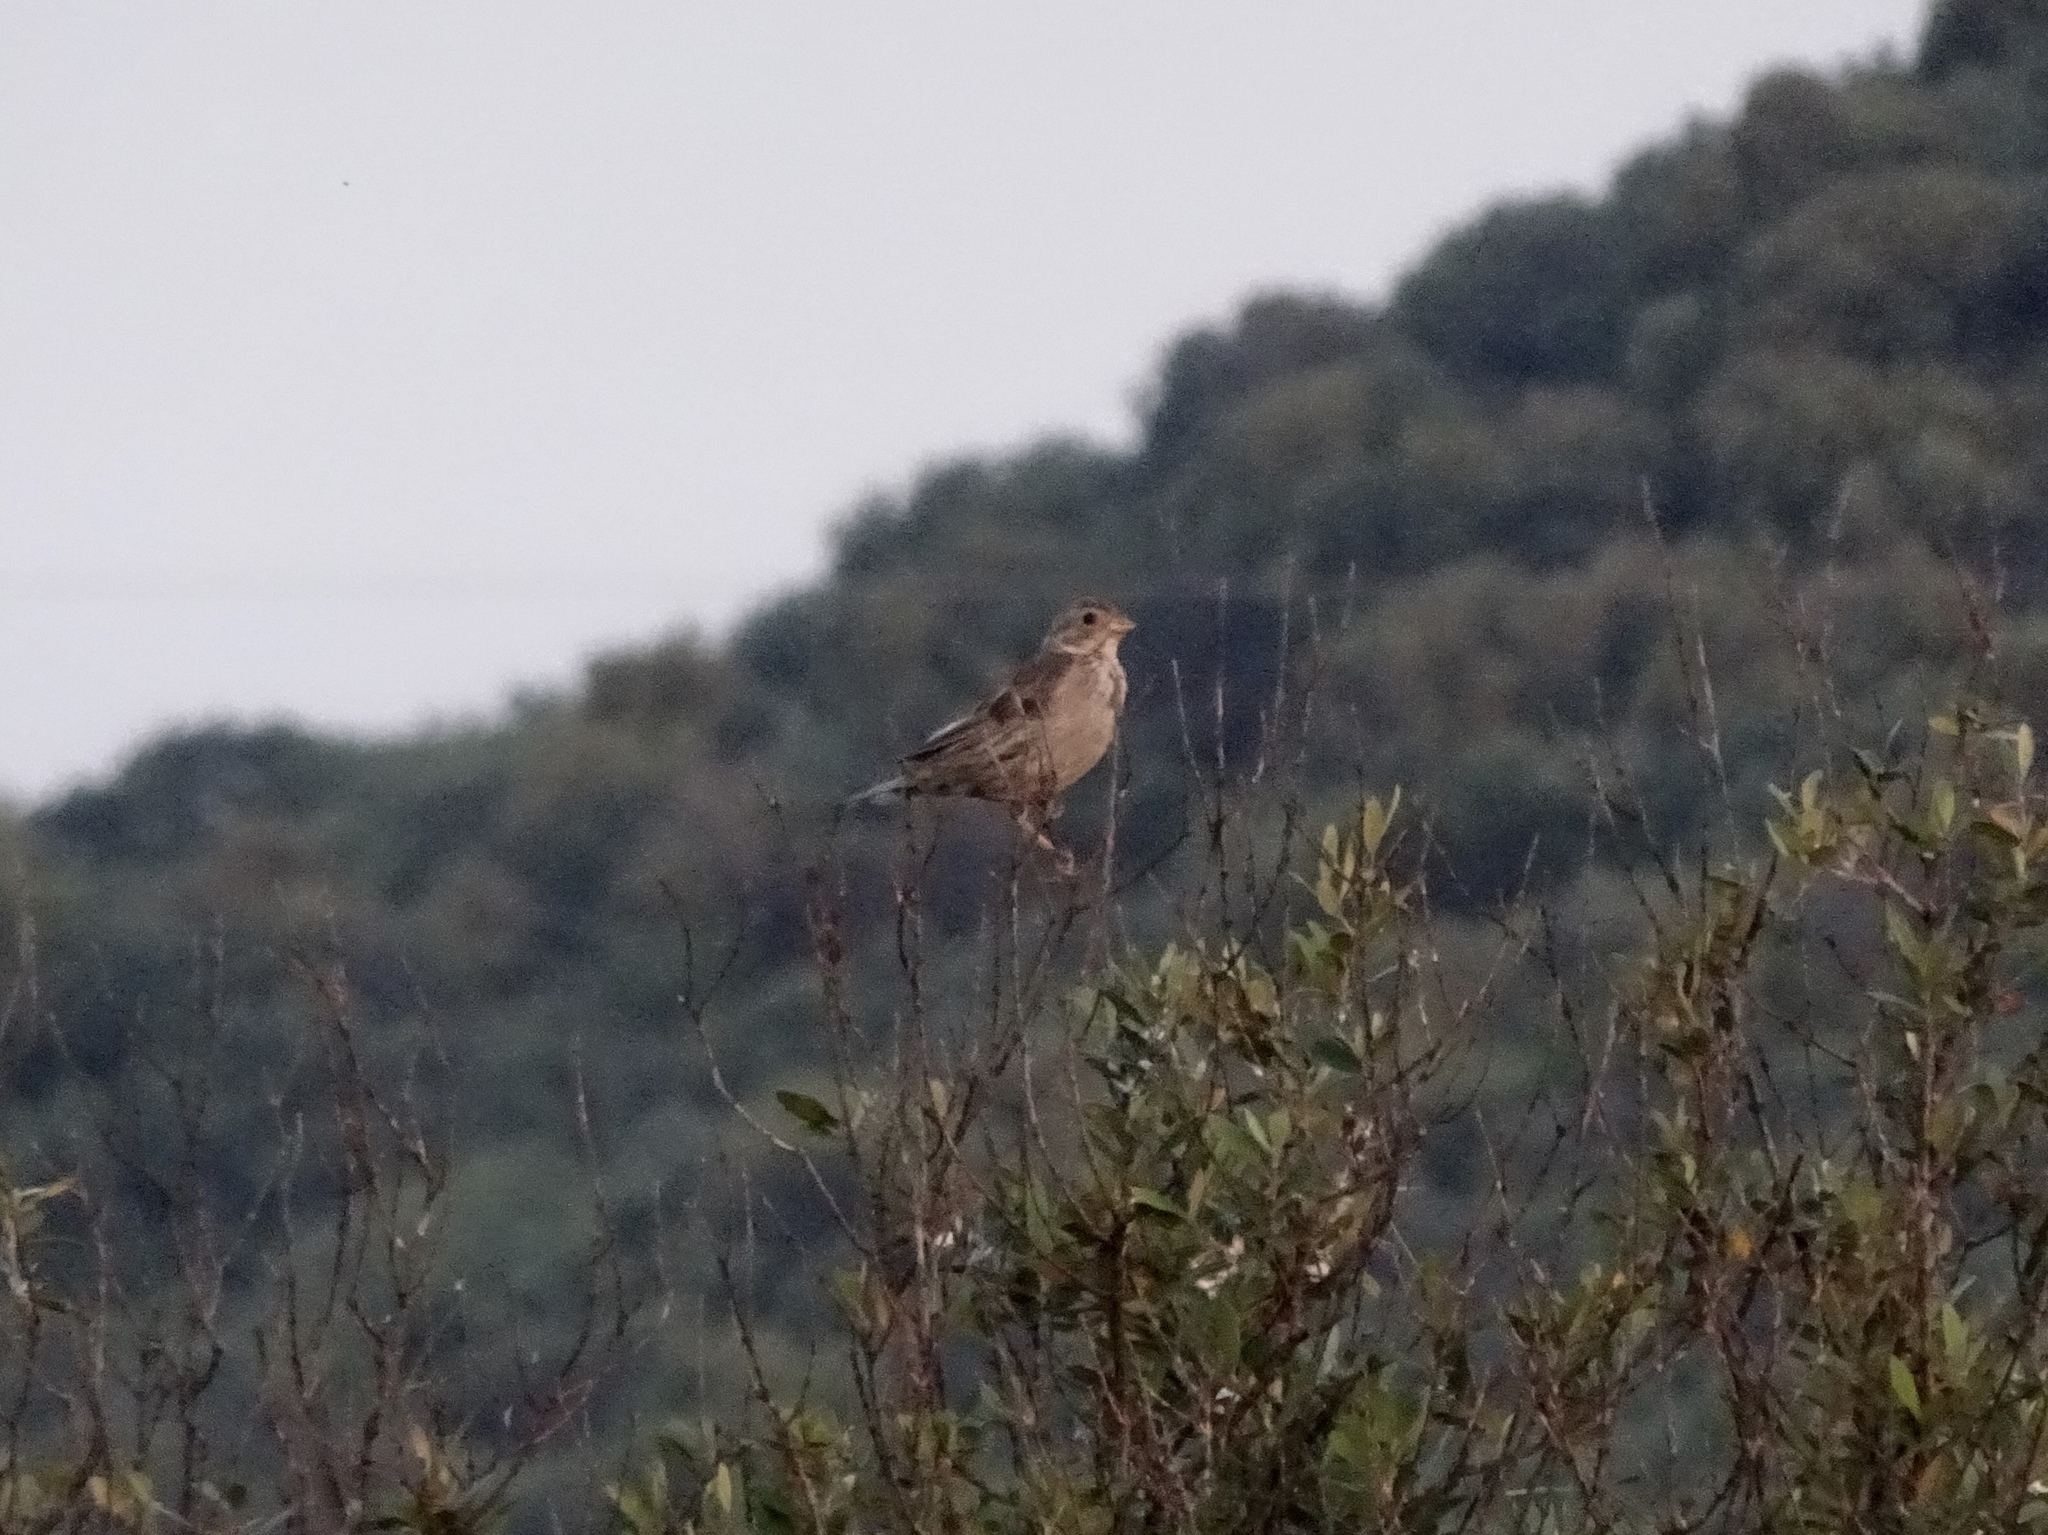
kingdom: Animalia
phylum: Chordata
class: Aves
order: Passeriformes
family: Emberizidae
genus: Emberiza
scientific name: Emberiza calandra
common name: Corn bunting
